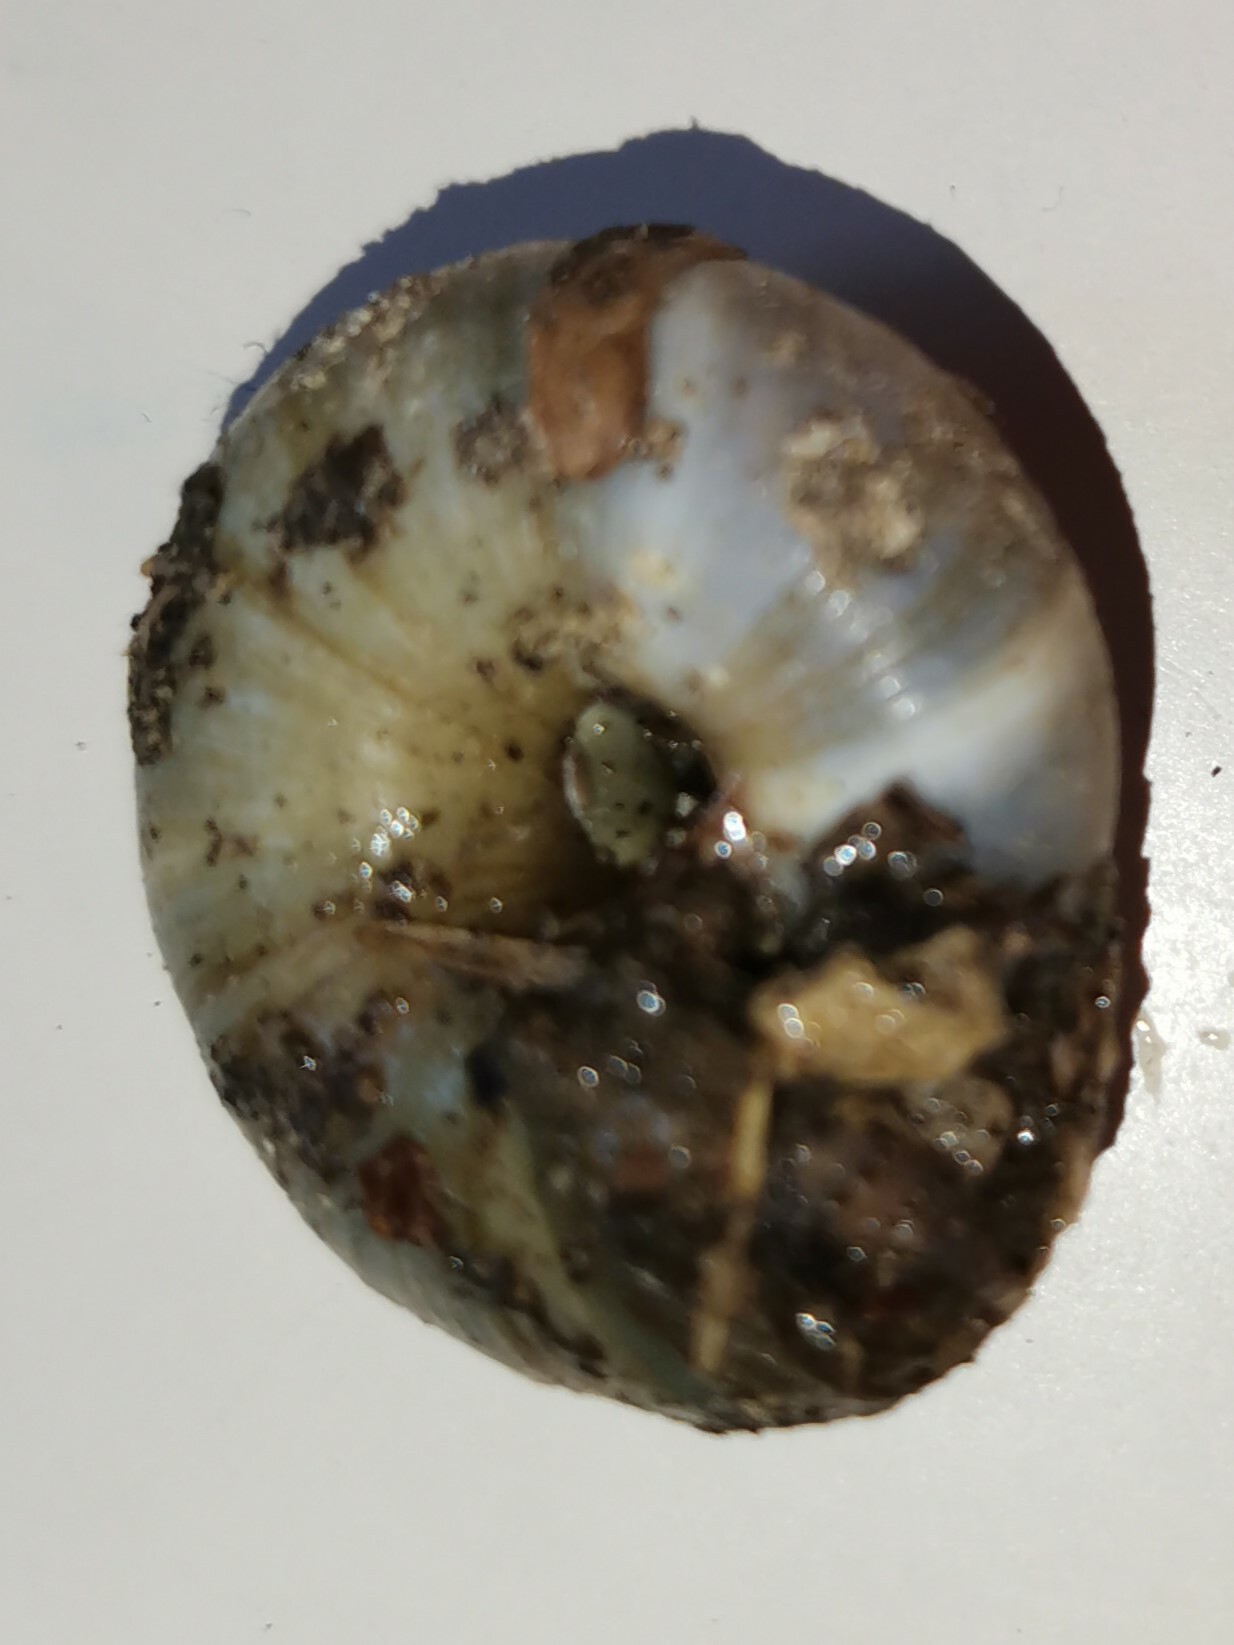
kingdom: Animalia
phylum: Mollusca
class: Gastropoda
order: Stylommatophora
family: Zonitidae
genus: Zonites
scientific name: Zonites algirus
